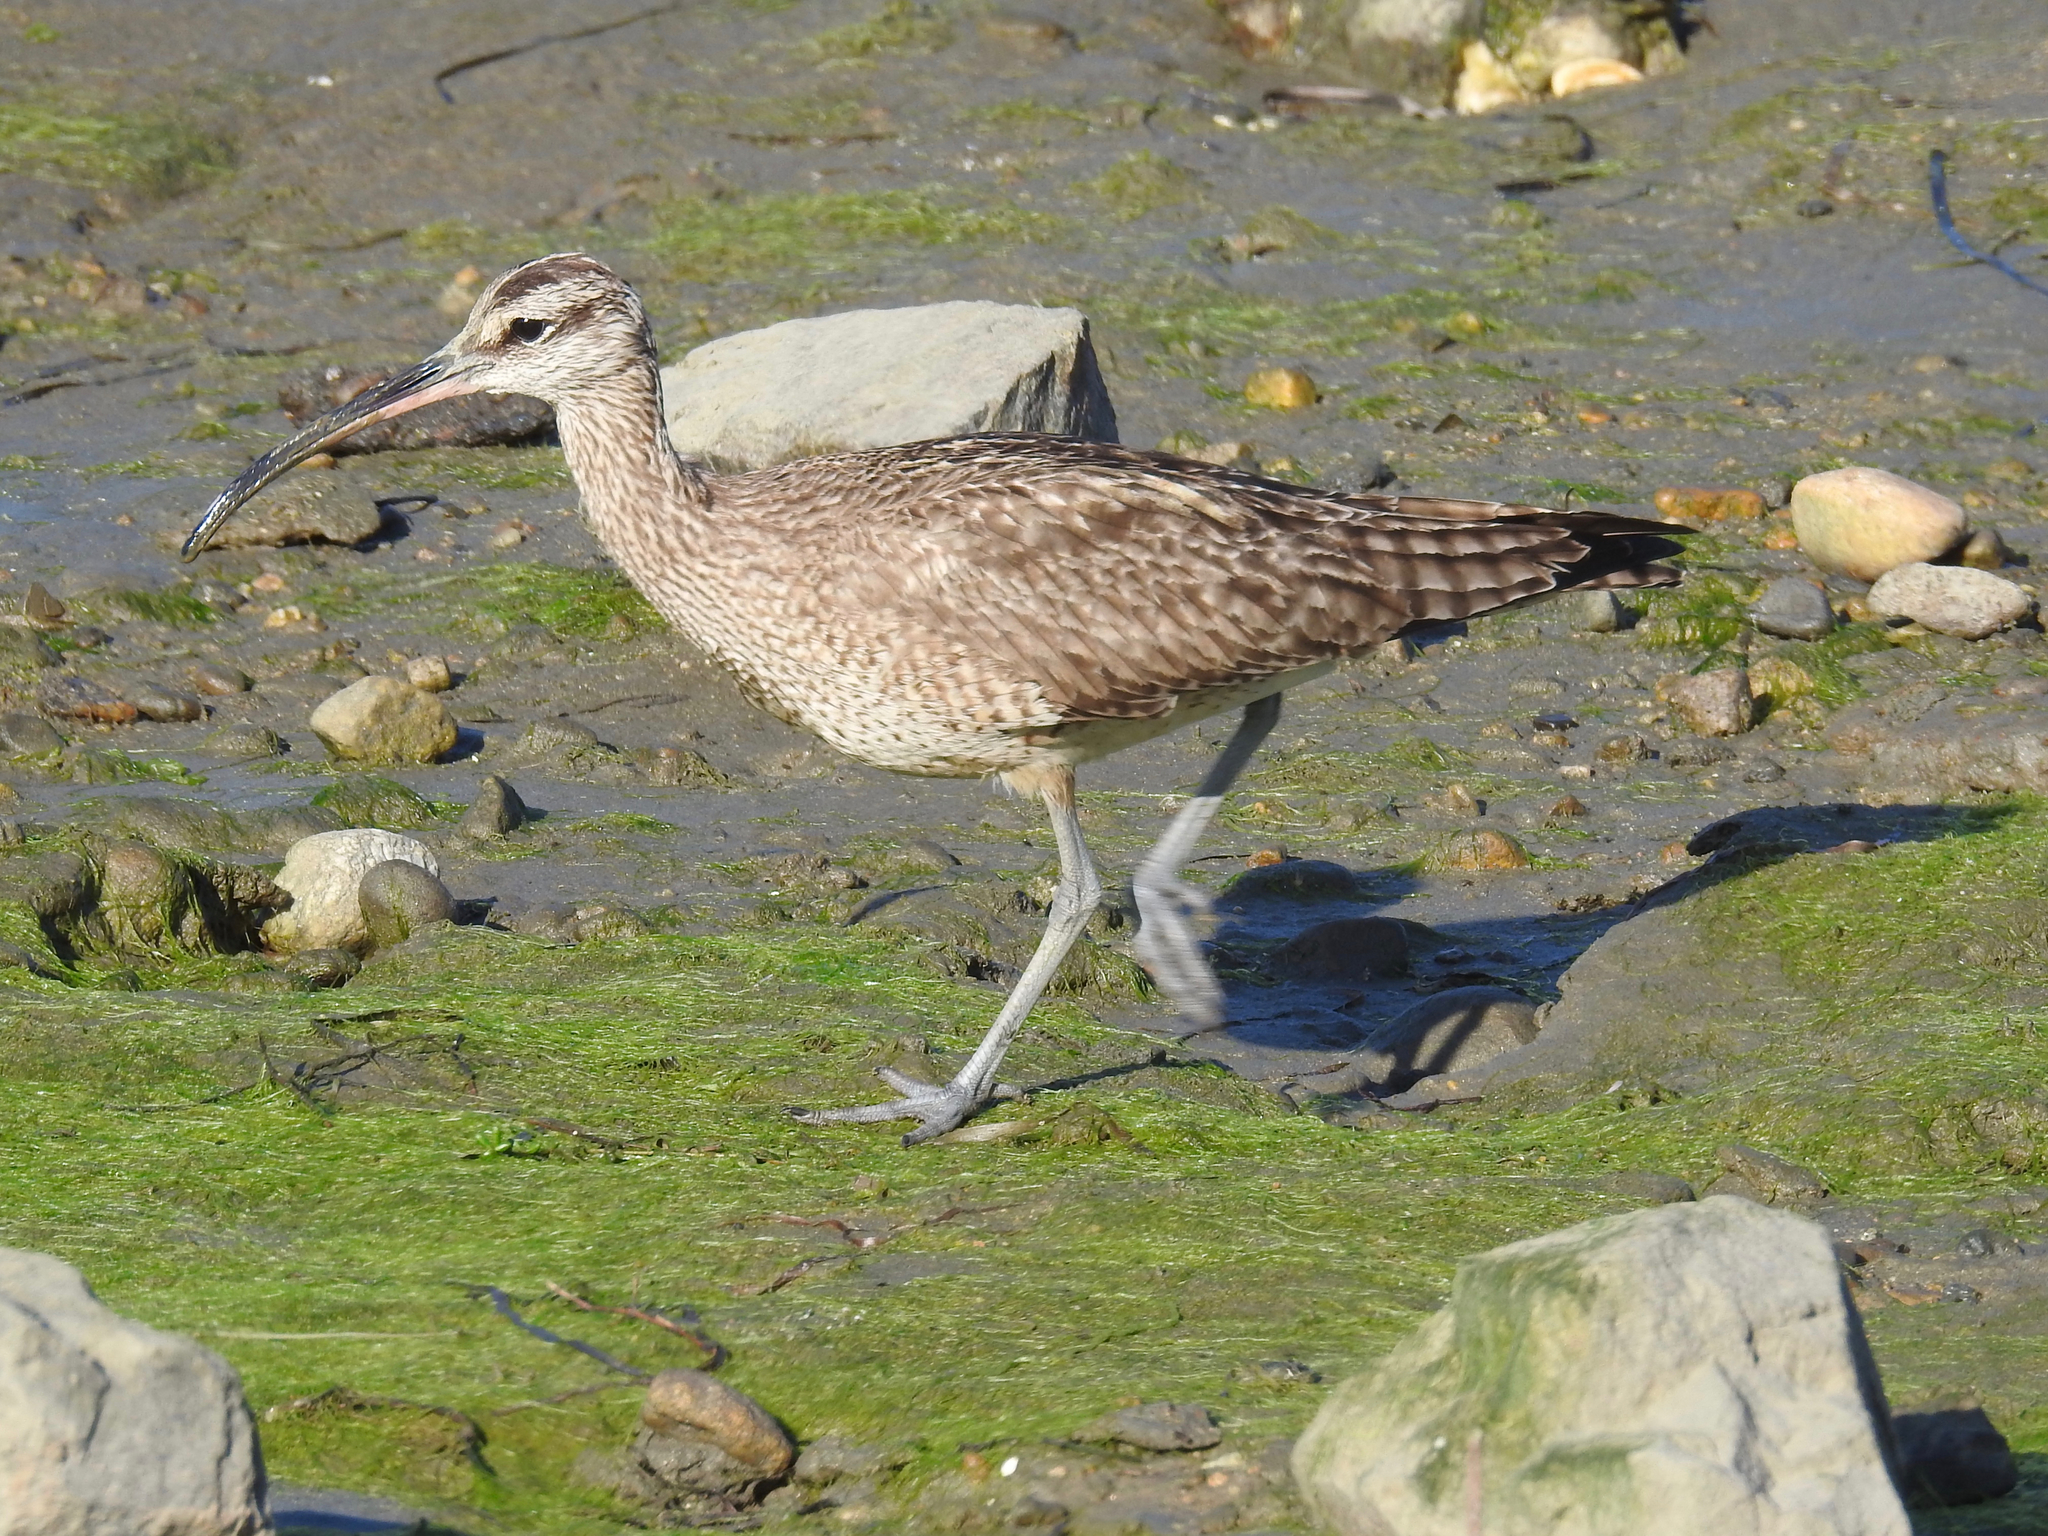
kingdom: Animalia
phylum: Chordata
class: Aves
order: Charadriiformes
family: Scolopacidae
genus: Numenius
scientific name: Numenius phaeopus
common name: Whimbrel
